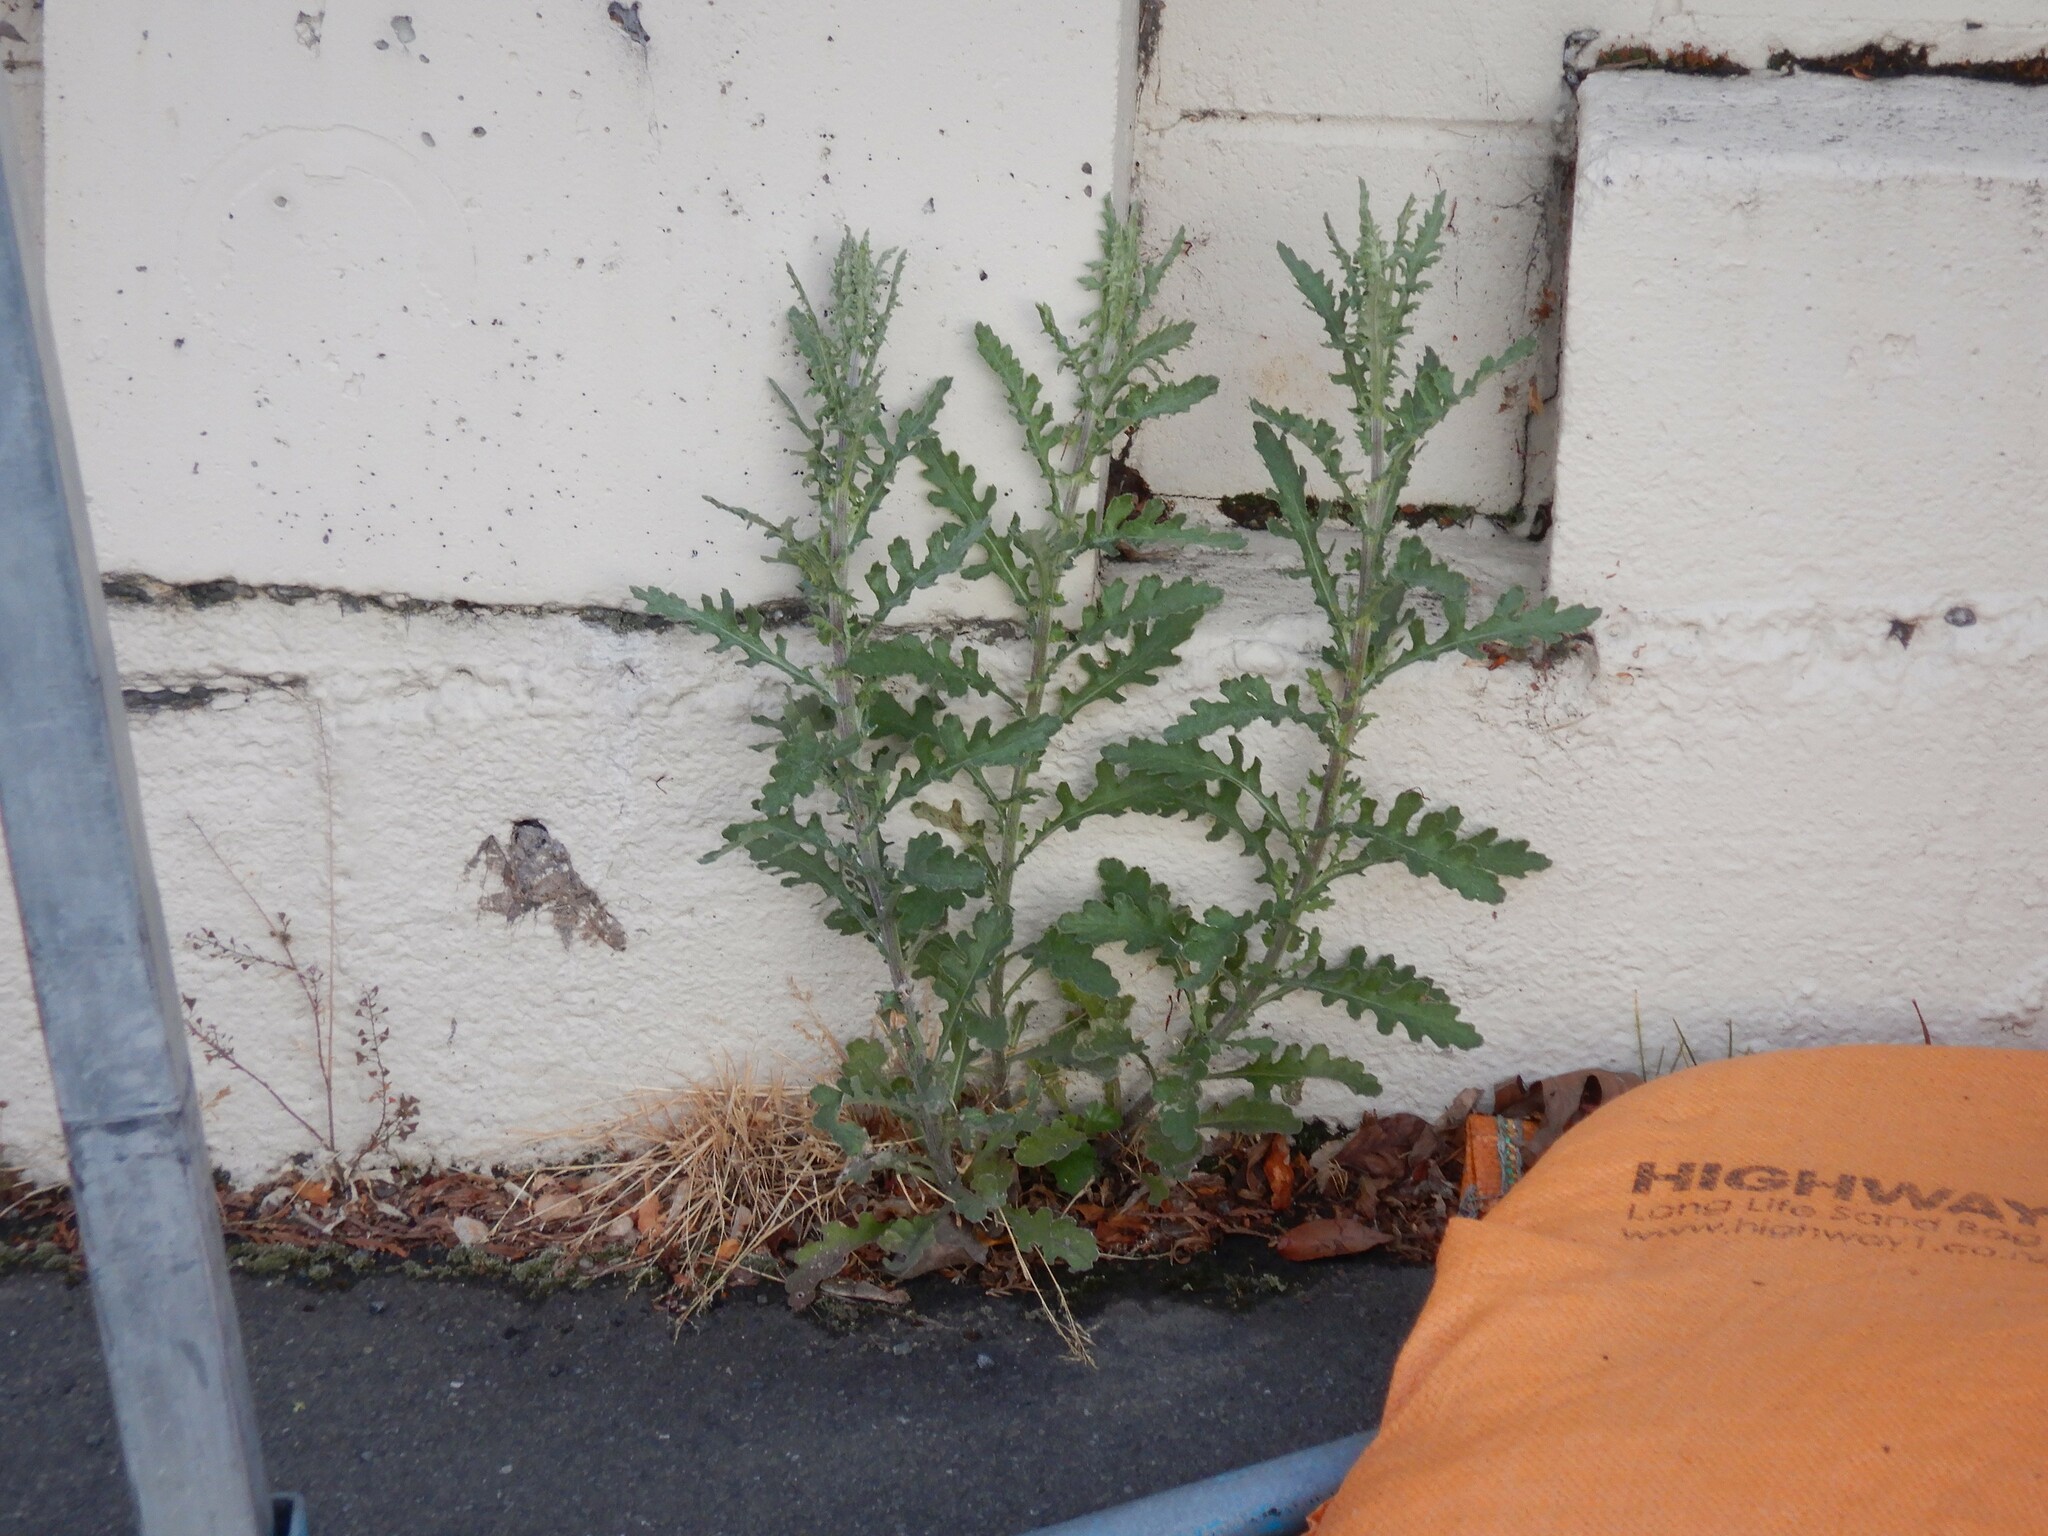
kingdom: Plantae
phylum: Tracheophyta
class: Magnoliopsida
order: Asterales
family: Asteraceae
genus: Senecio
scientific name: Senecio glomeratus
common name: Cutleaf burnweed
